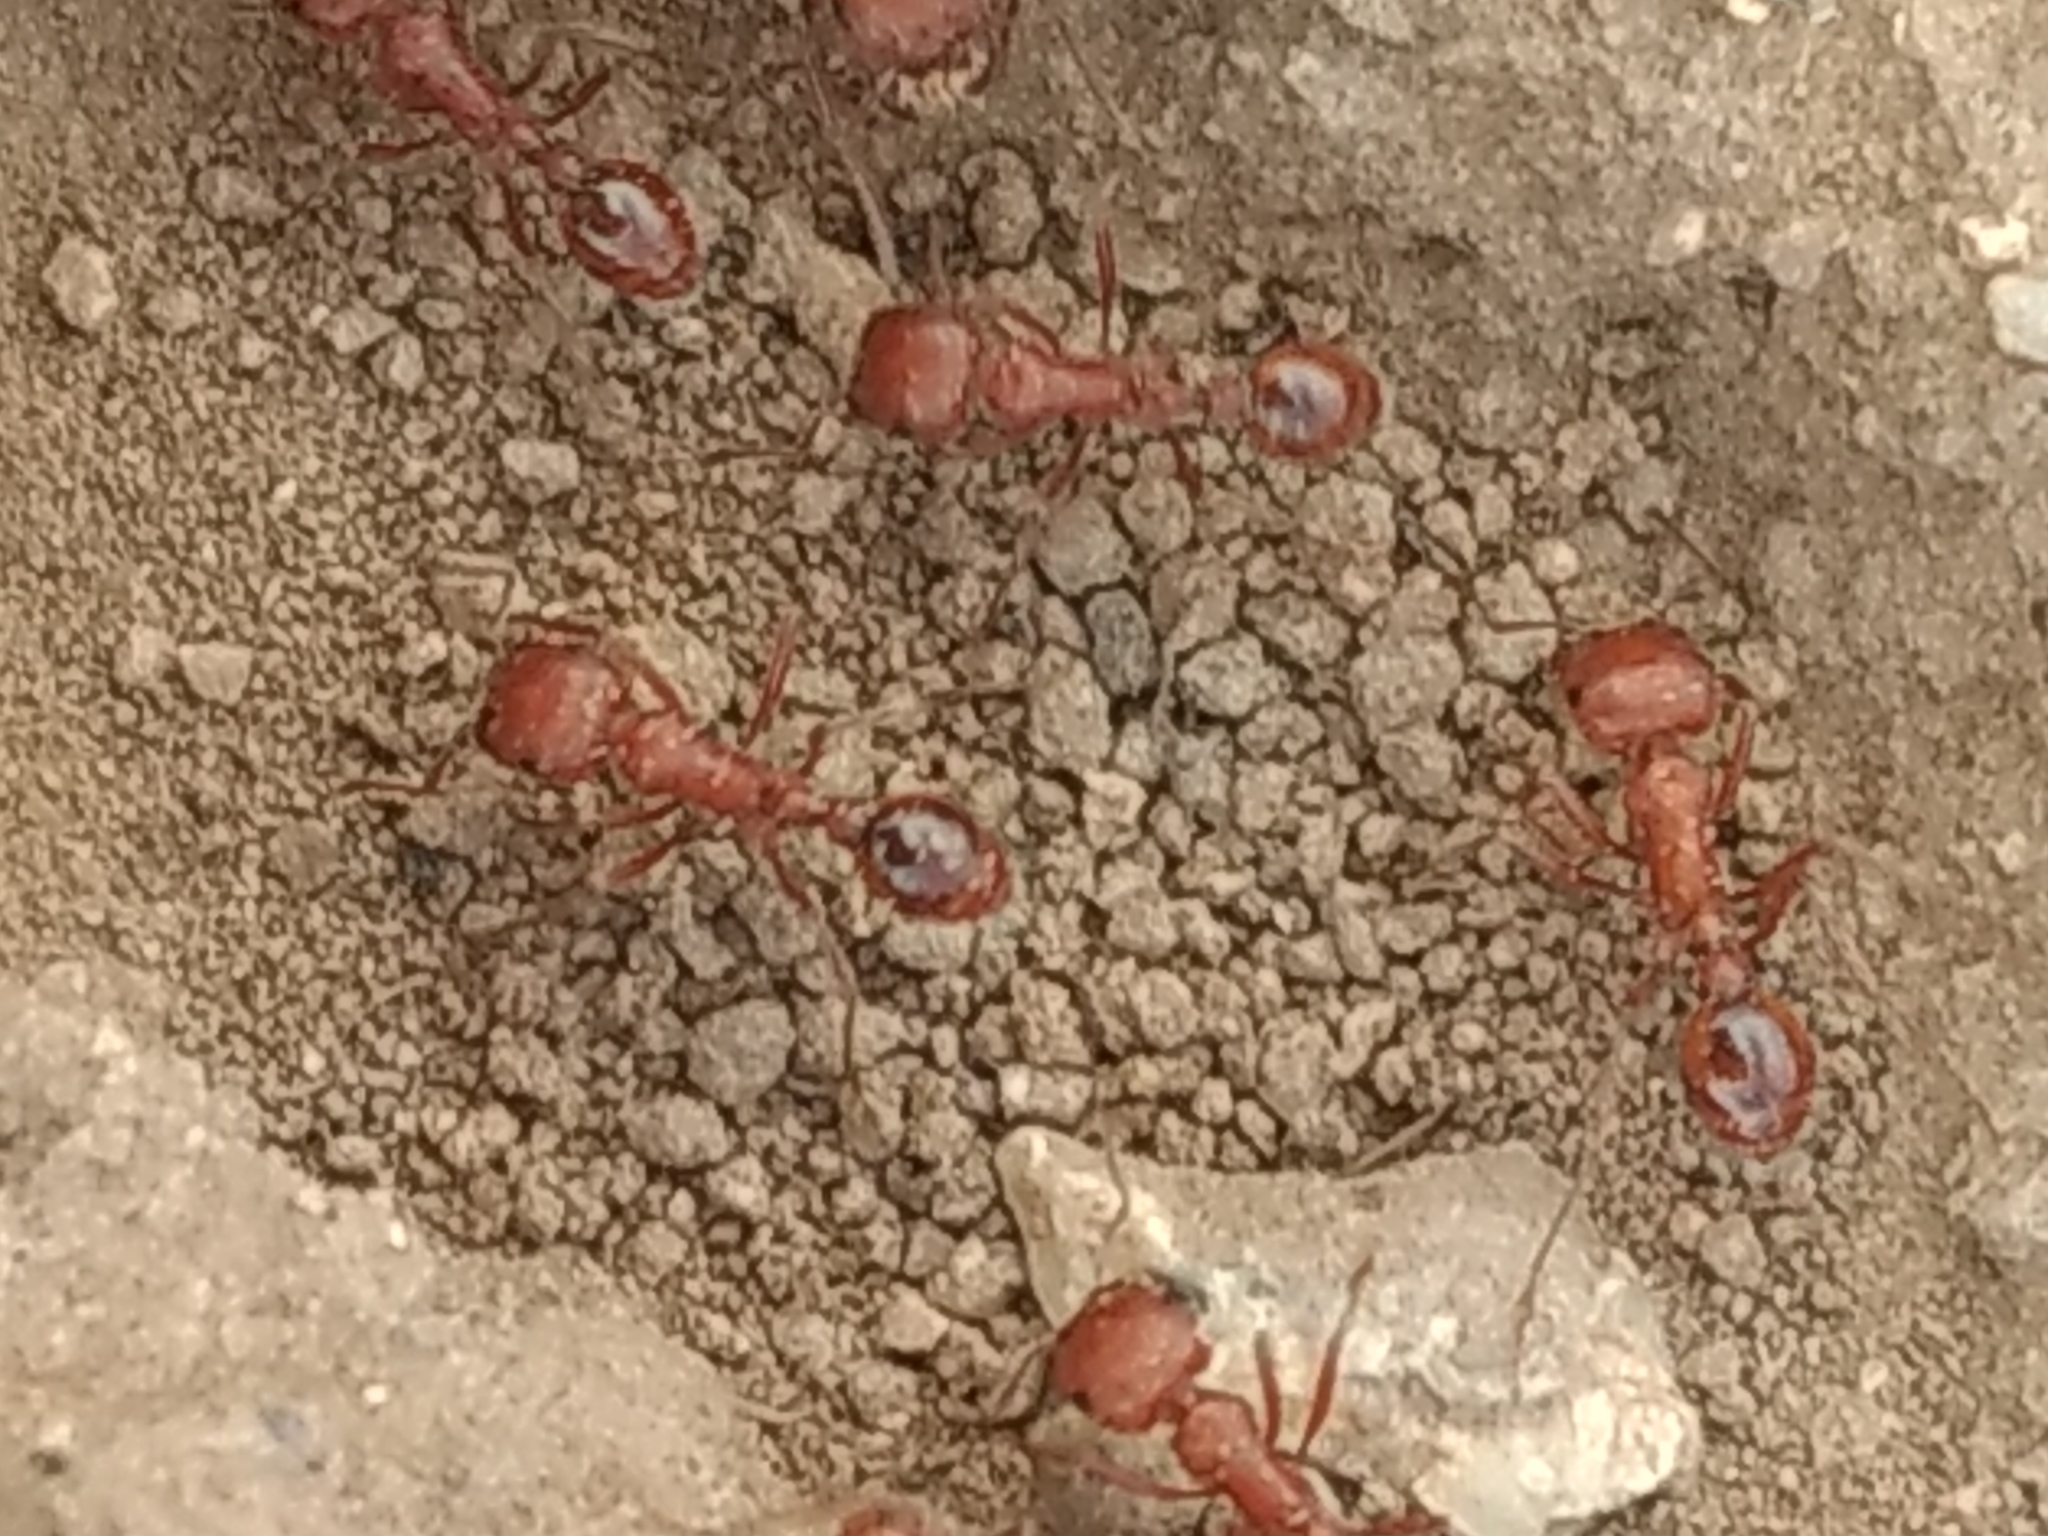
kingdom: Animalia
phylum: Arthropoda
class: Insecta
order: Hymenoptera
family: Formicidae
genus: Pogonomyrmex
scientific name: Pogonomyrmex californicus
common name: California harvester ant
